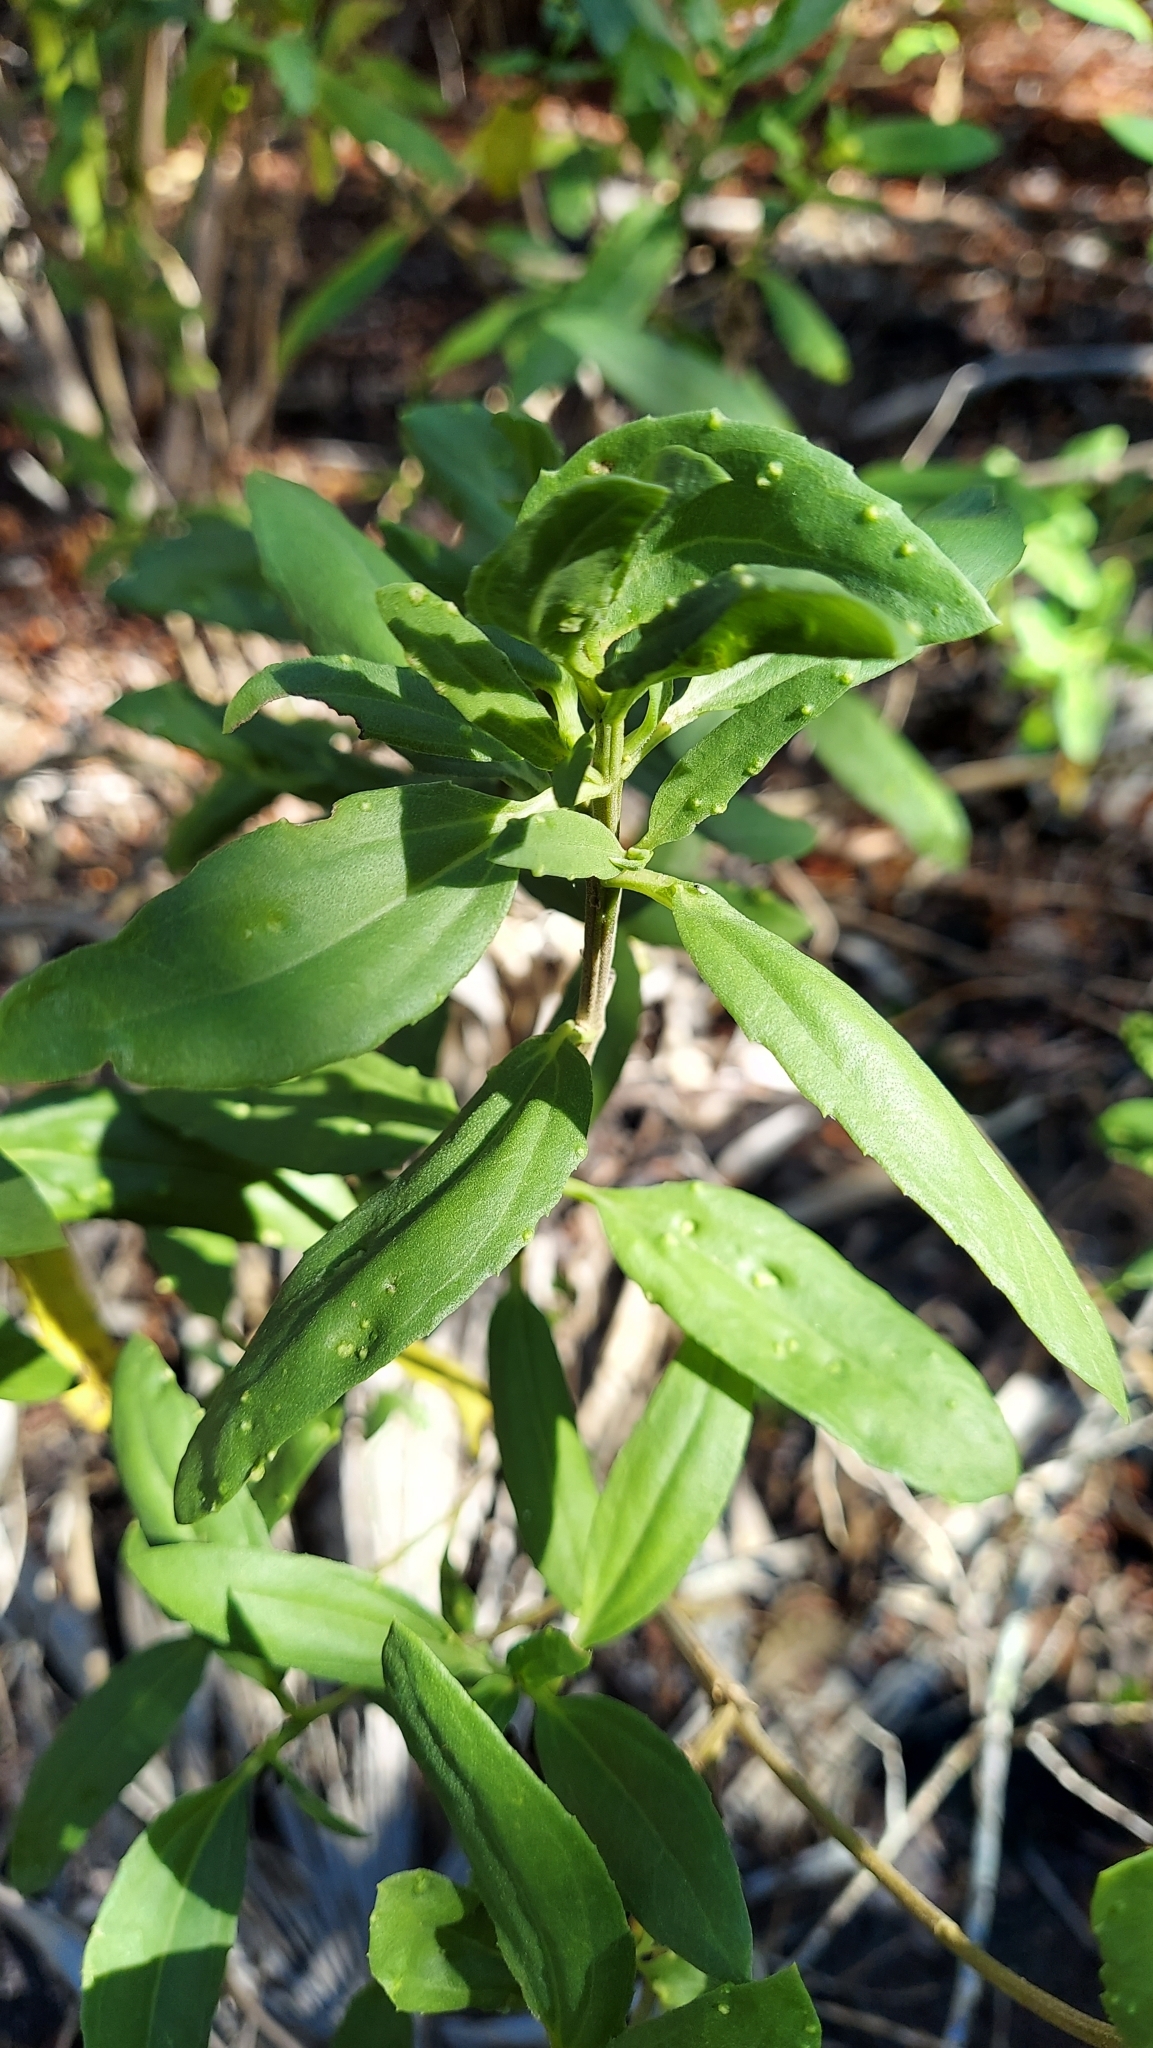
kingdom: Plantae
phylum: Tracheophyta
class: Magnoliopsida
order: Asterales
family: Asteraceae
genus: Iva
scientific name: Iva frutescens
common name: Big-leaved marsh-elder
